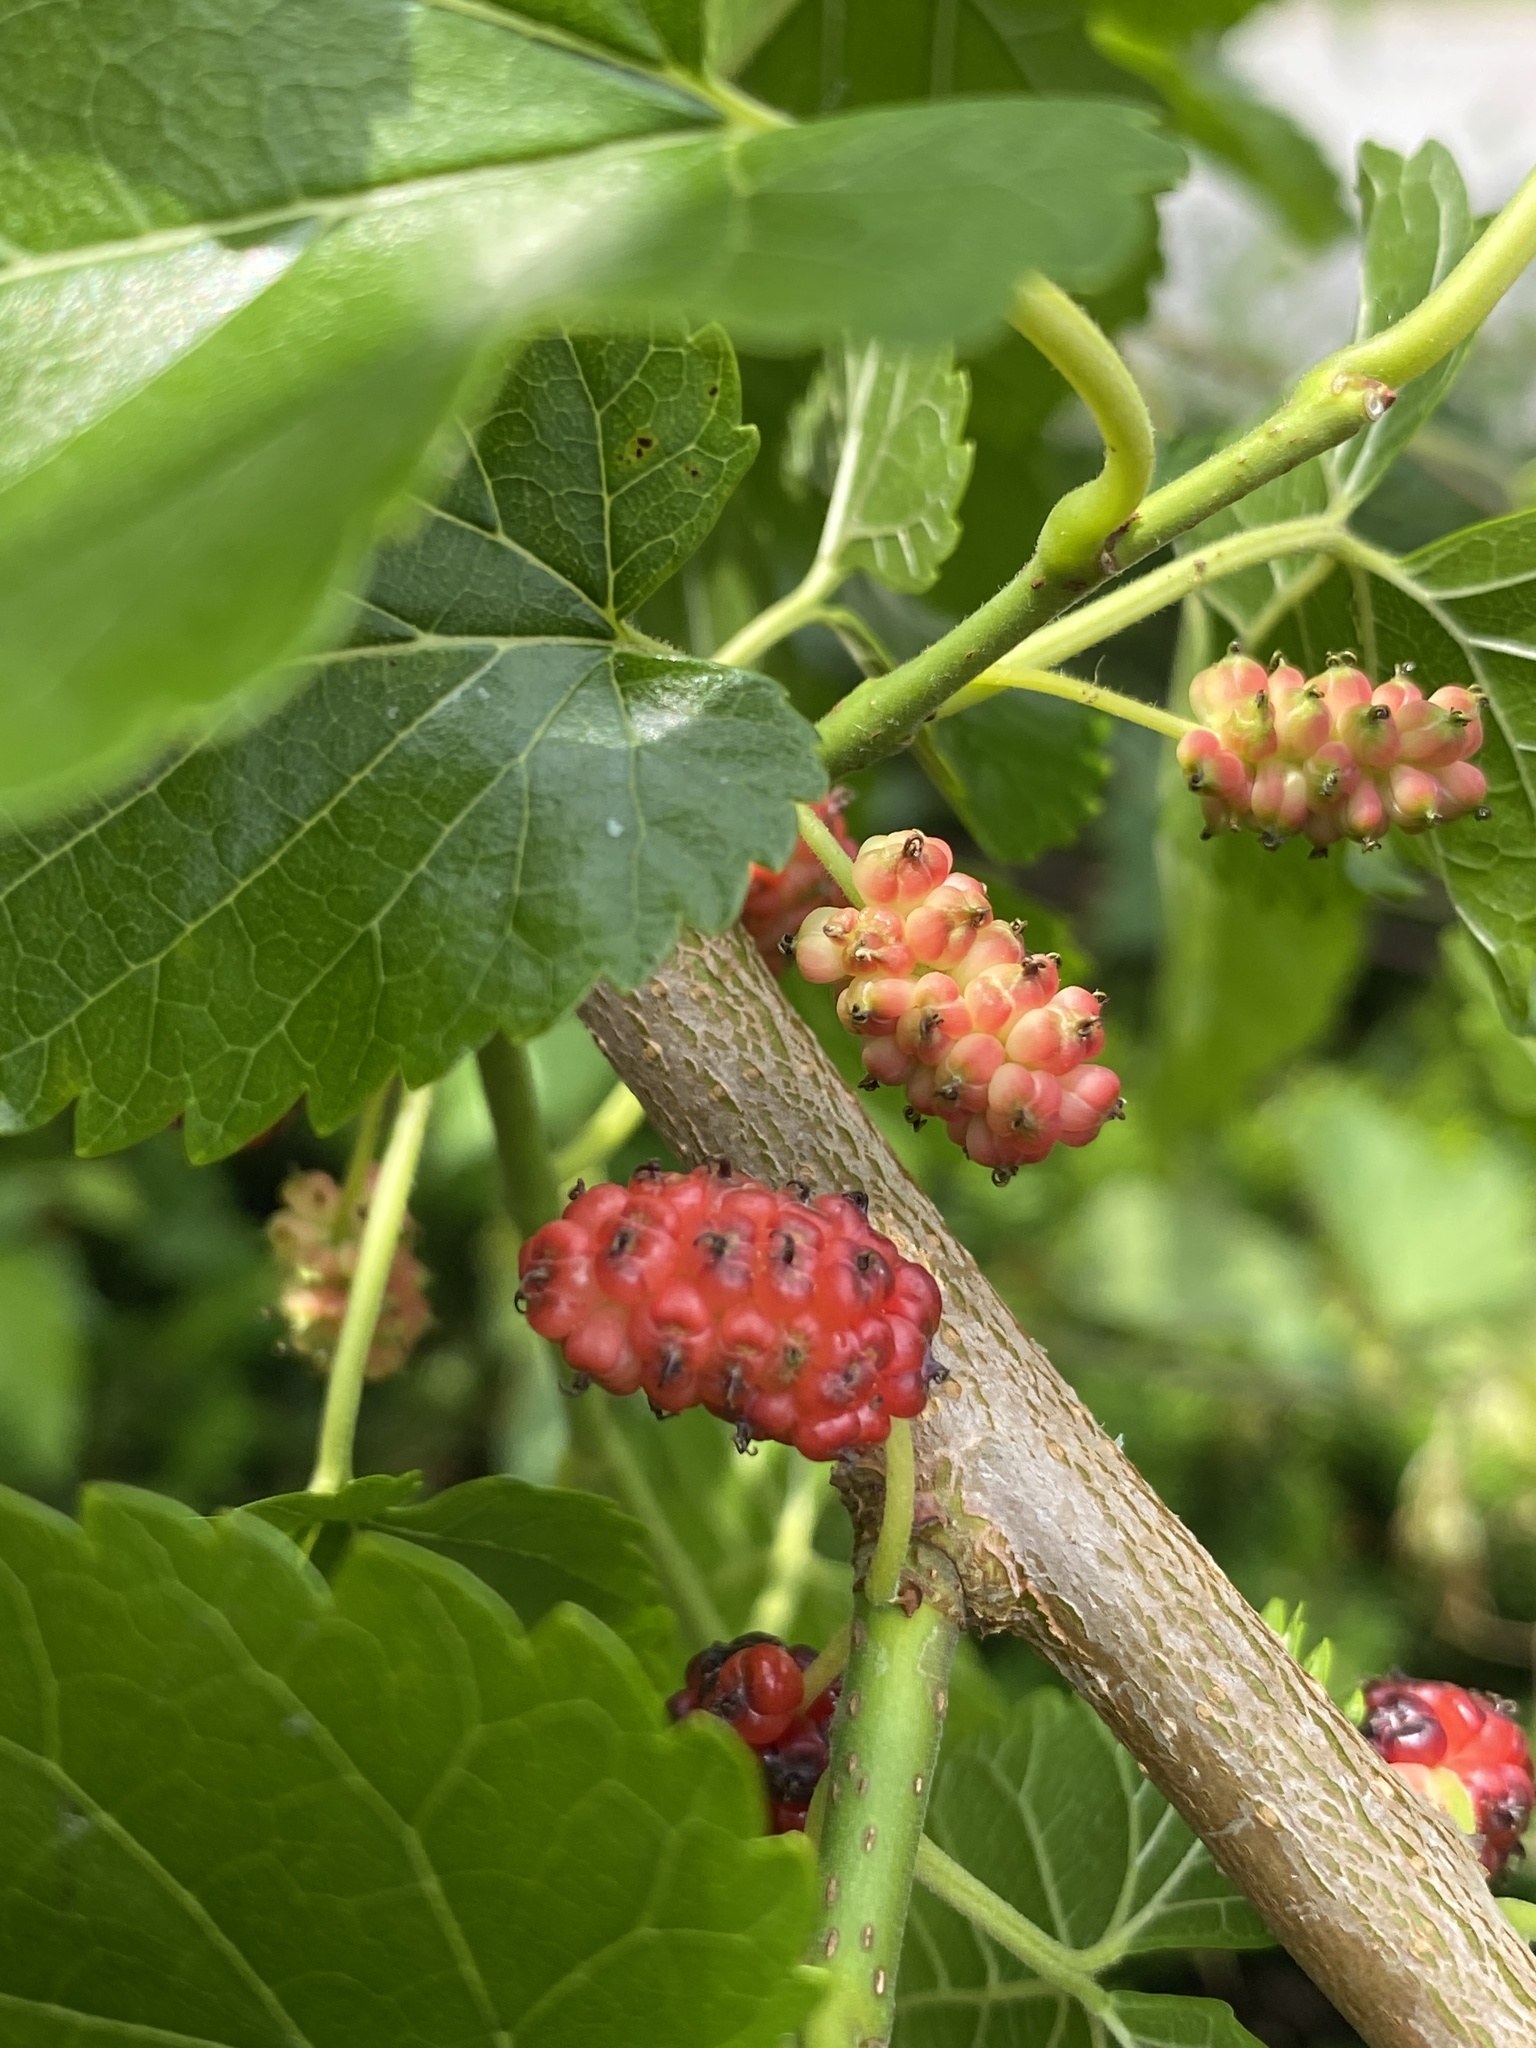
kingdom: Plantae
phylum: Tracheophyta
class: Magnoliopsida
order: Rosales
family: Moraceae
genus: Morus
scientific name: Morus alba
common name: White mulberry
